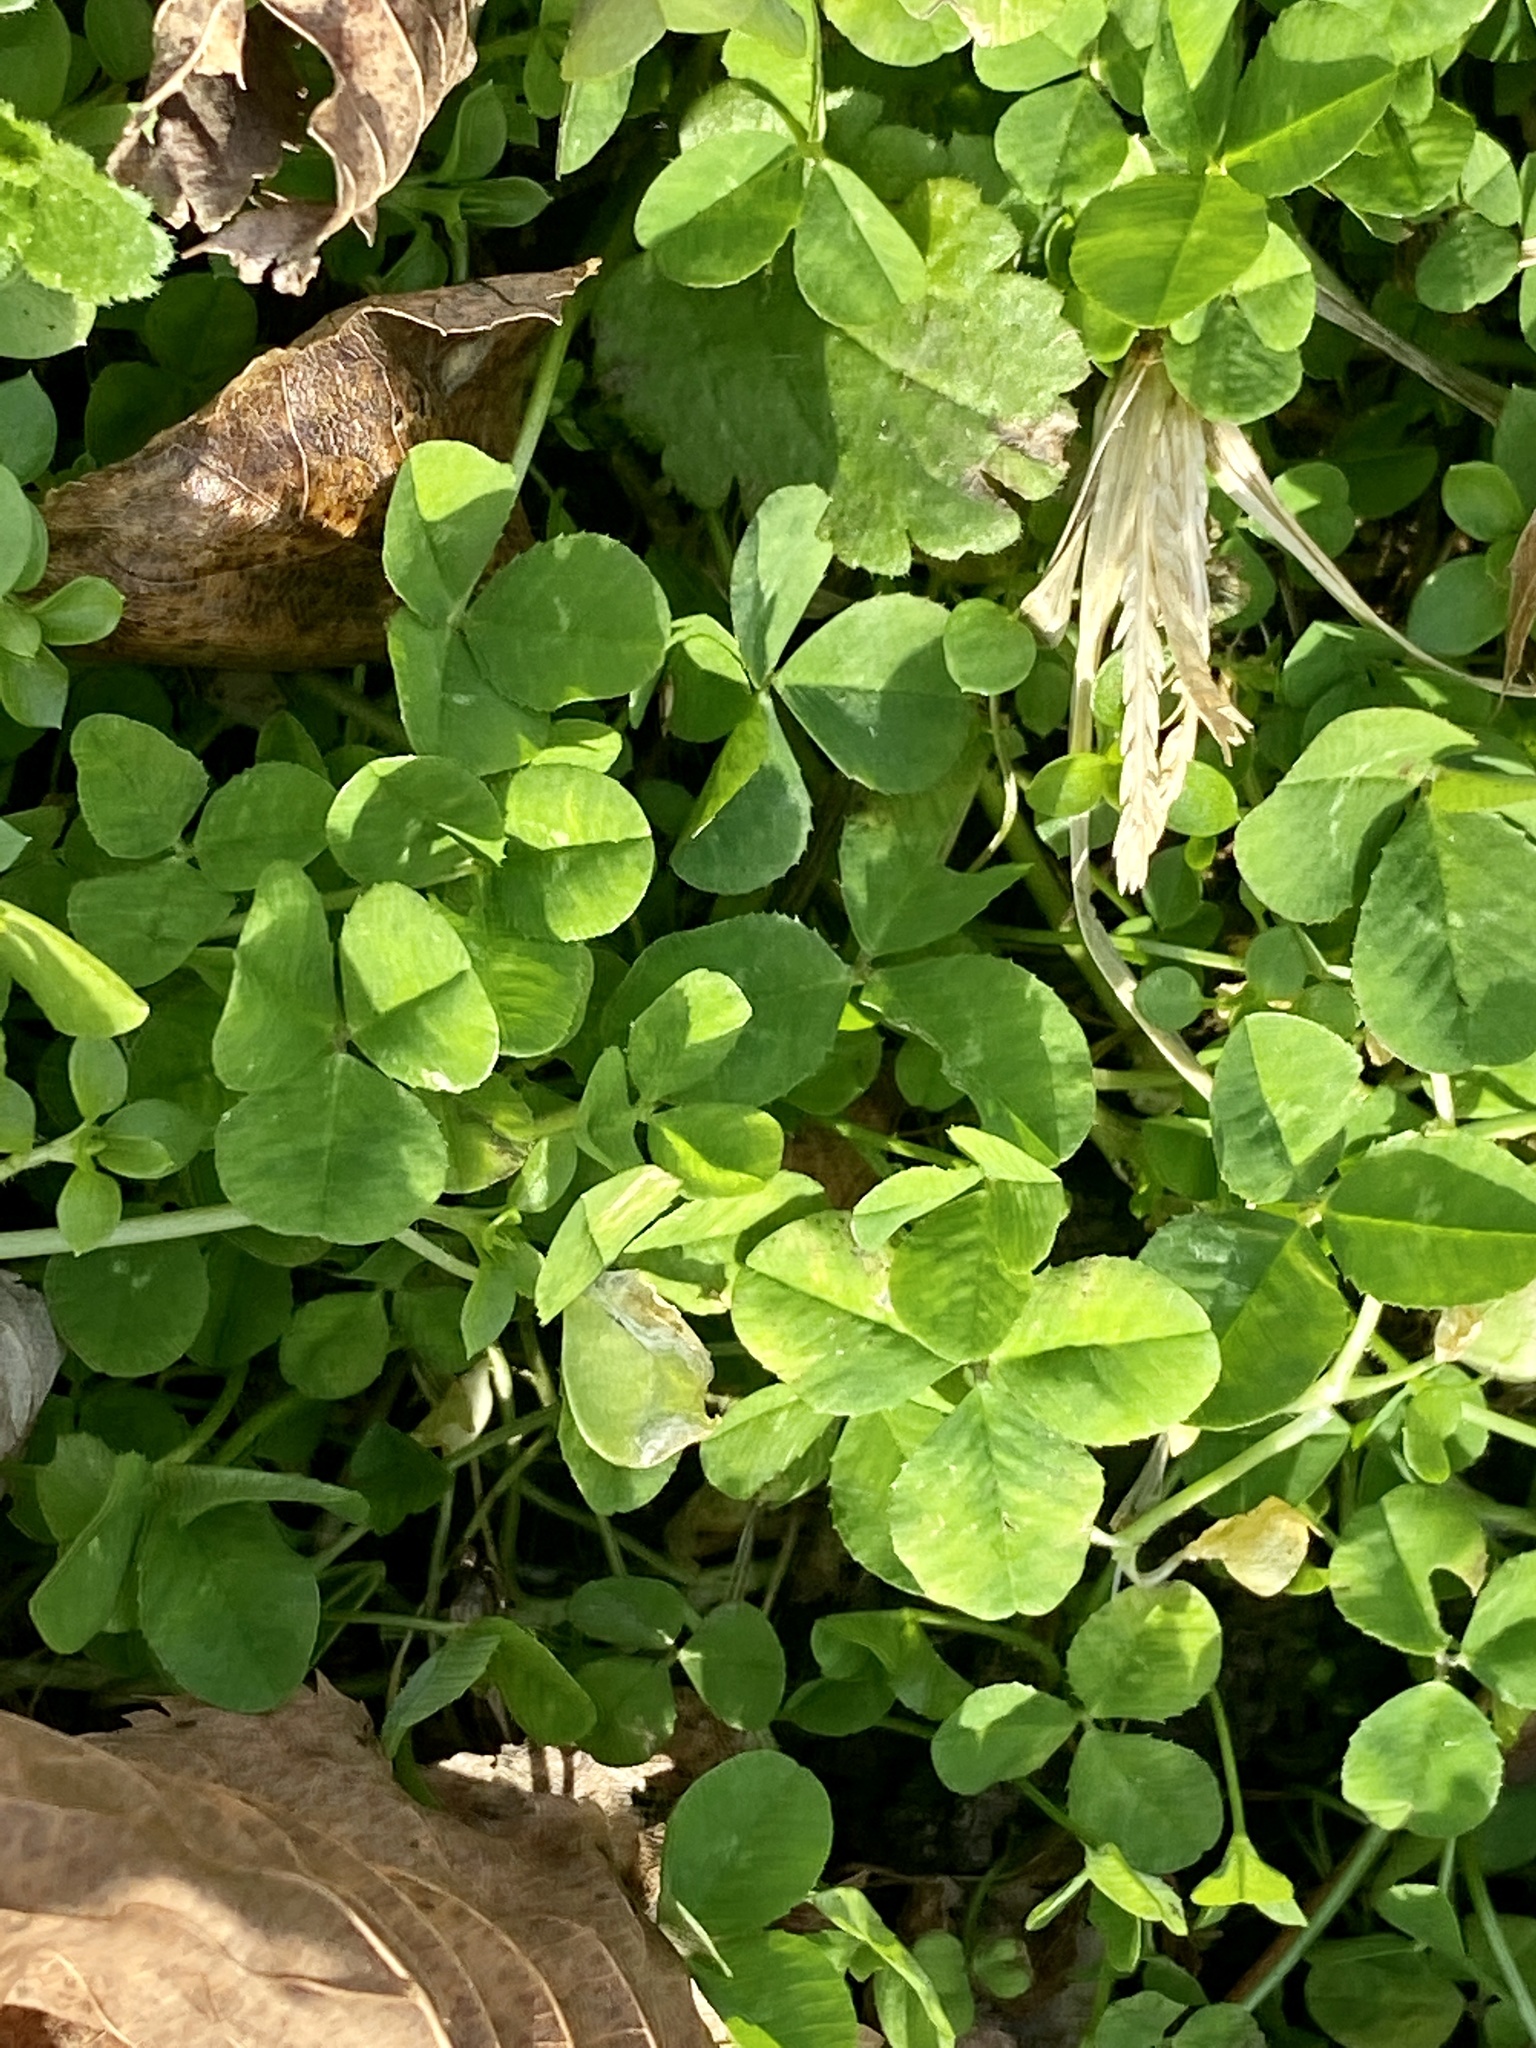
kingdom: Plantae
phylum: Tracheophyta
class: Magnoliopsida
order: Fabales
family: Fabaceae
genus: Trifolium
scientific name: Trifolium repens
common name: White clover
